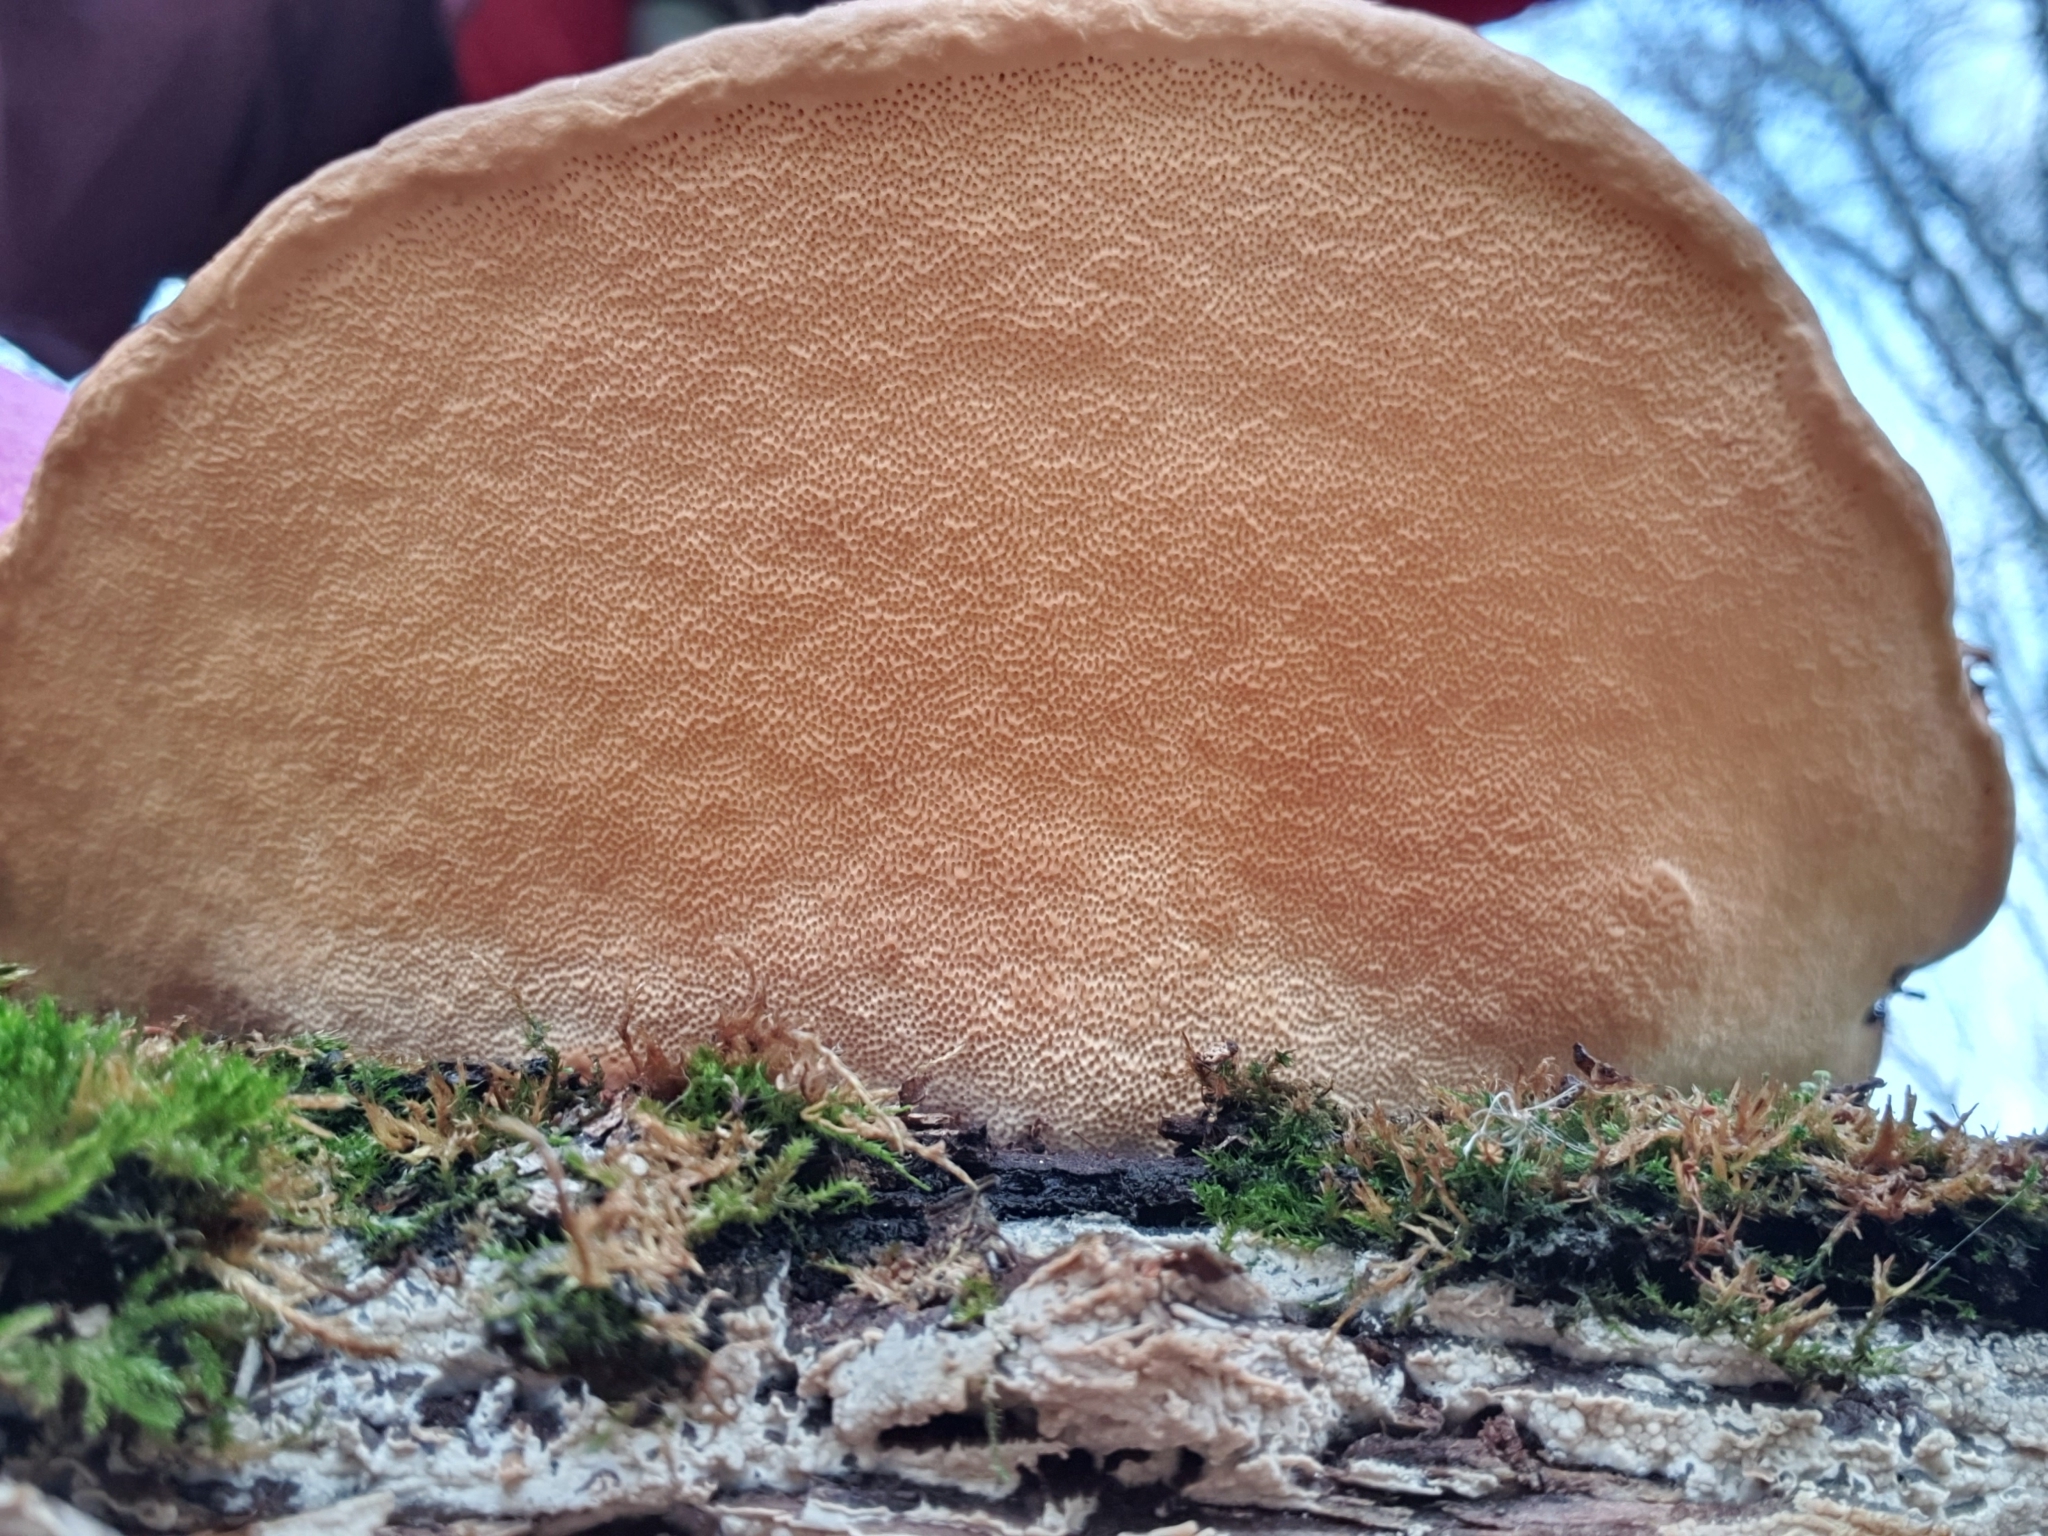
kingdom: Fungi
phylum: Basidiomycota
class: Agaricomycetes
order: Polyporales
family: Fomitopsidaceae
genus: Fomitopsis
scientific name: Fomitopsis pinicola
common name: Red-belted bracket
